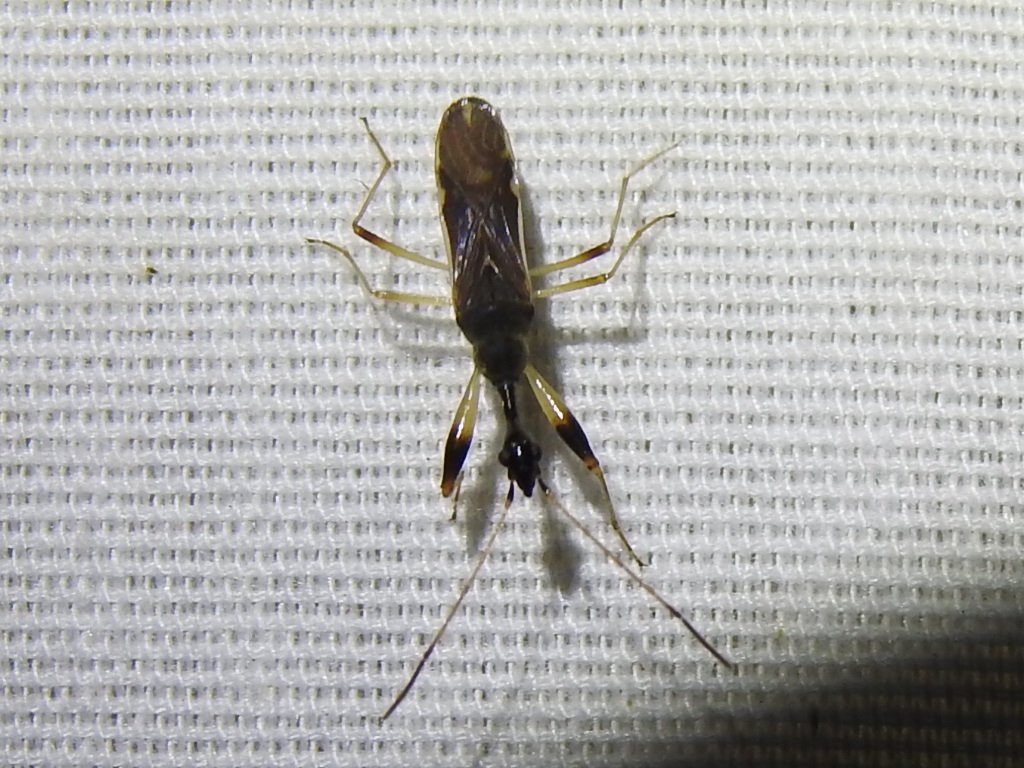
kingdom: Animalia
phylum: Arthropoda
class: Insecta
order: Hemiptera
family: Rhyparochromidae
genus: Myodocha
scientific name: Myodocha serripes
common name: Long-necked seed bug
